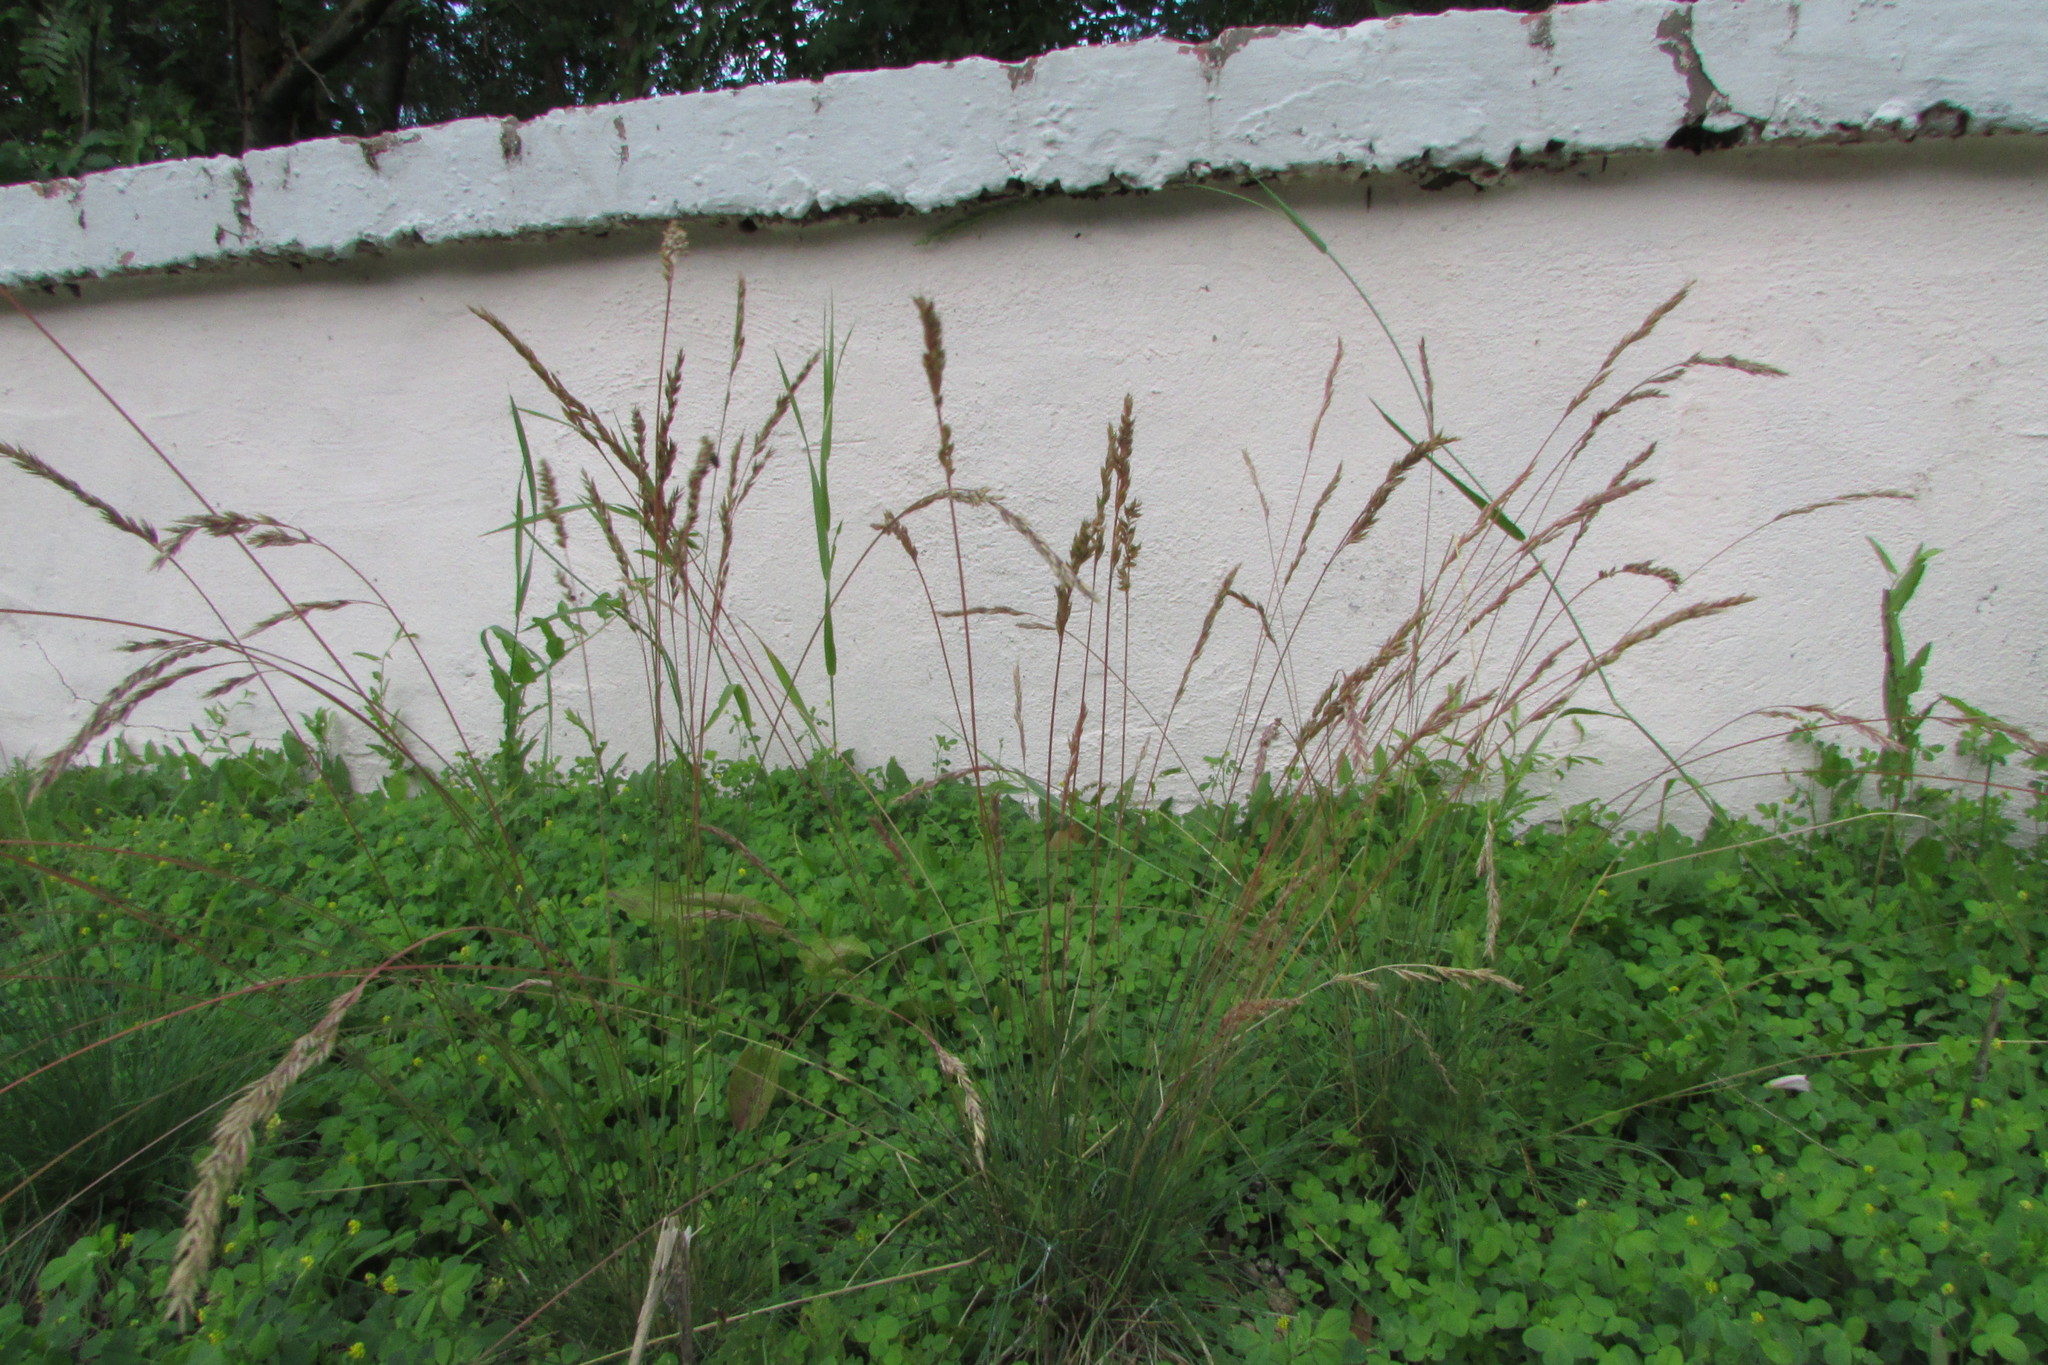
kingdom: Plantae
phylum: Tracheophyta
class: Liliopsida
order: Poales
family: Poaceae
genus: Festuca
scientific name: Festuca valesiaca
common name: Volga fescue
